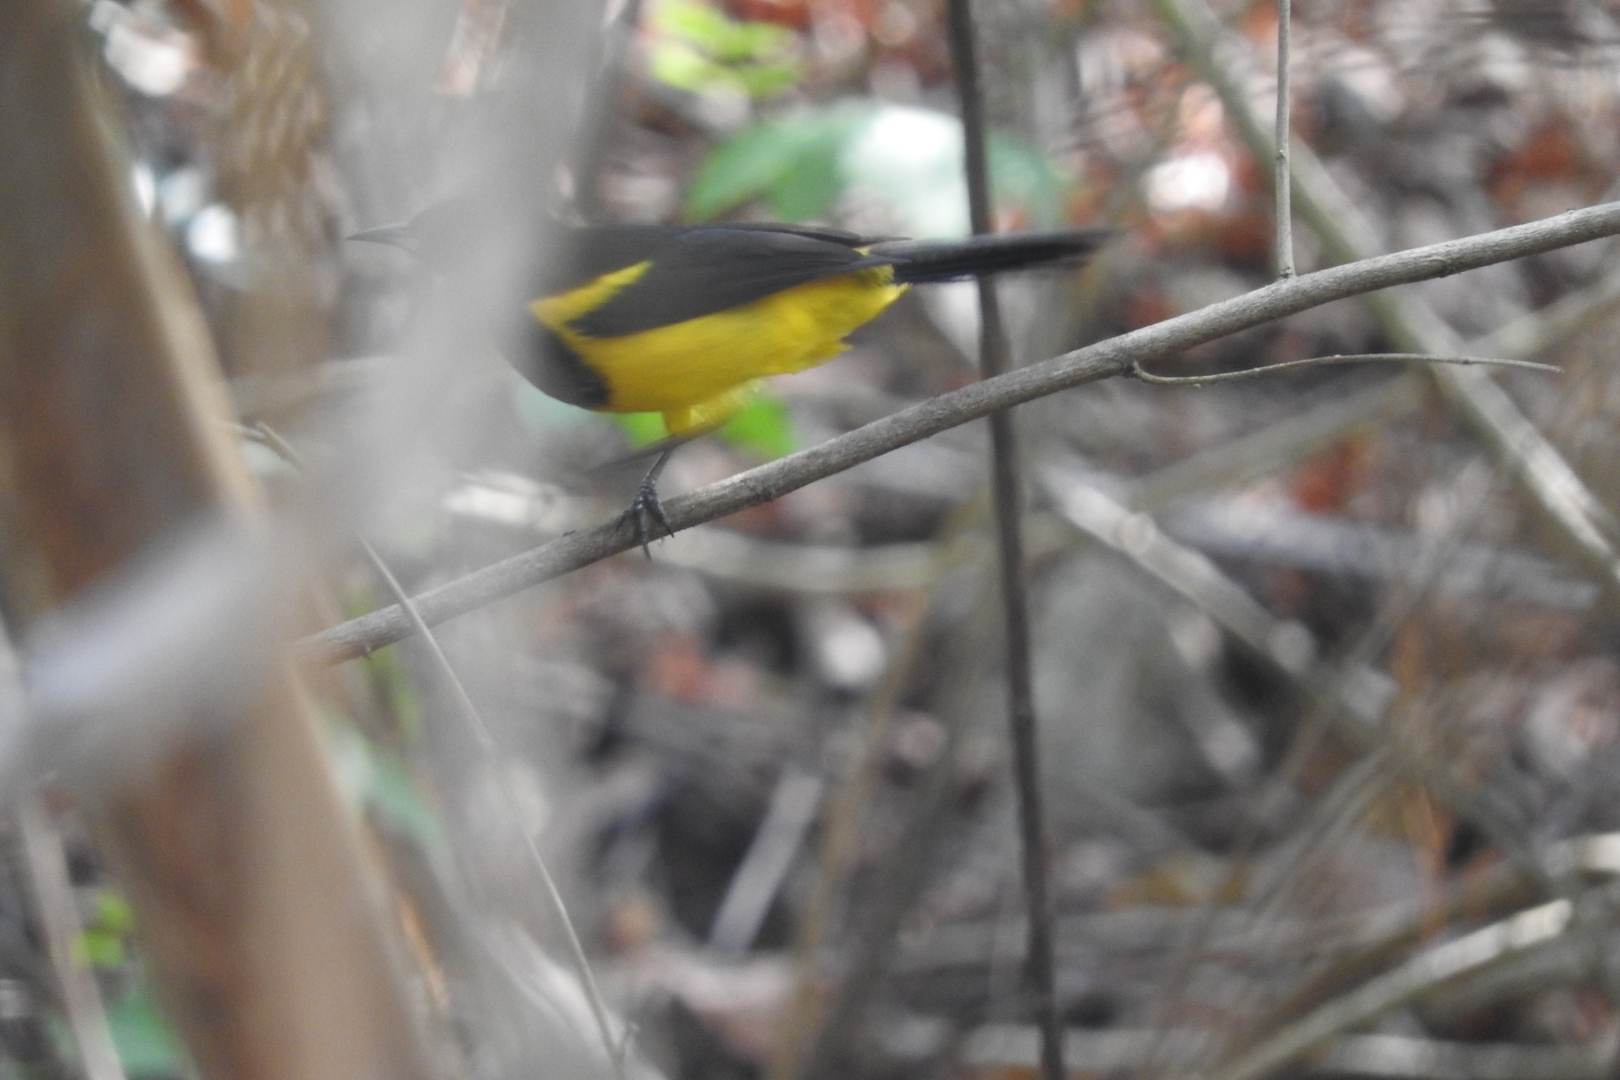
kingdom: Animalia
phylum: Chordata
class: Aves
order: Passeriformes
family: Icteridae
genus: Icterus
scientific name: Icterus prosthemelas
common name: Black-cowled oriole
